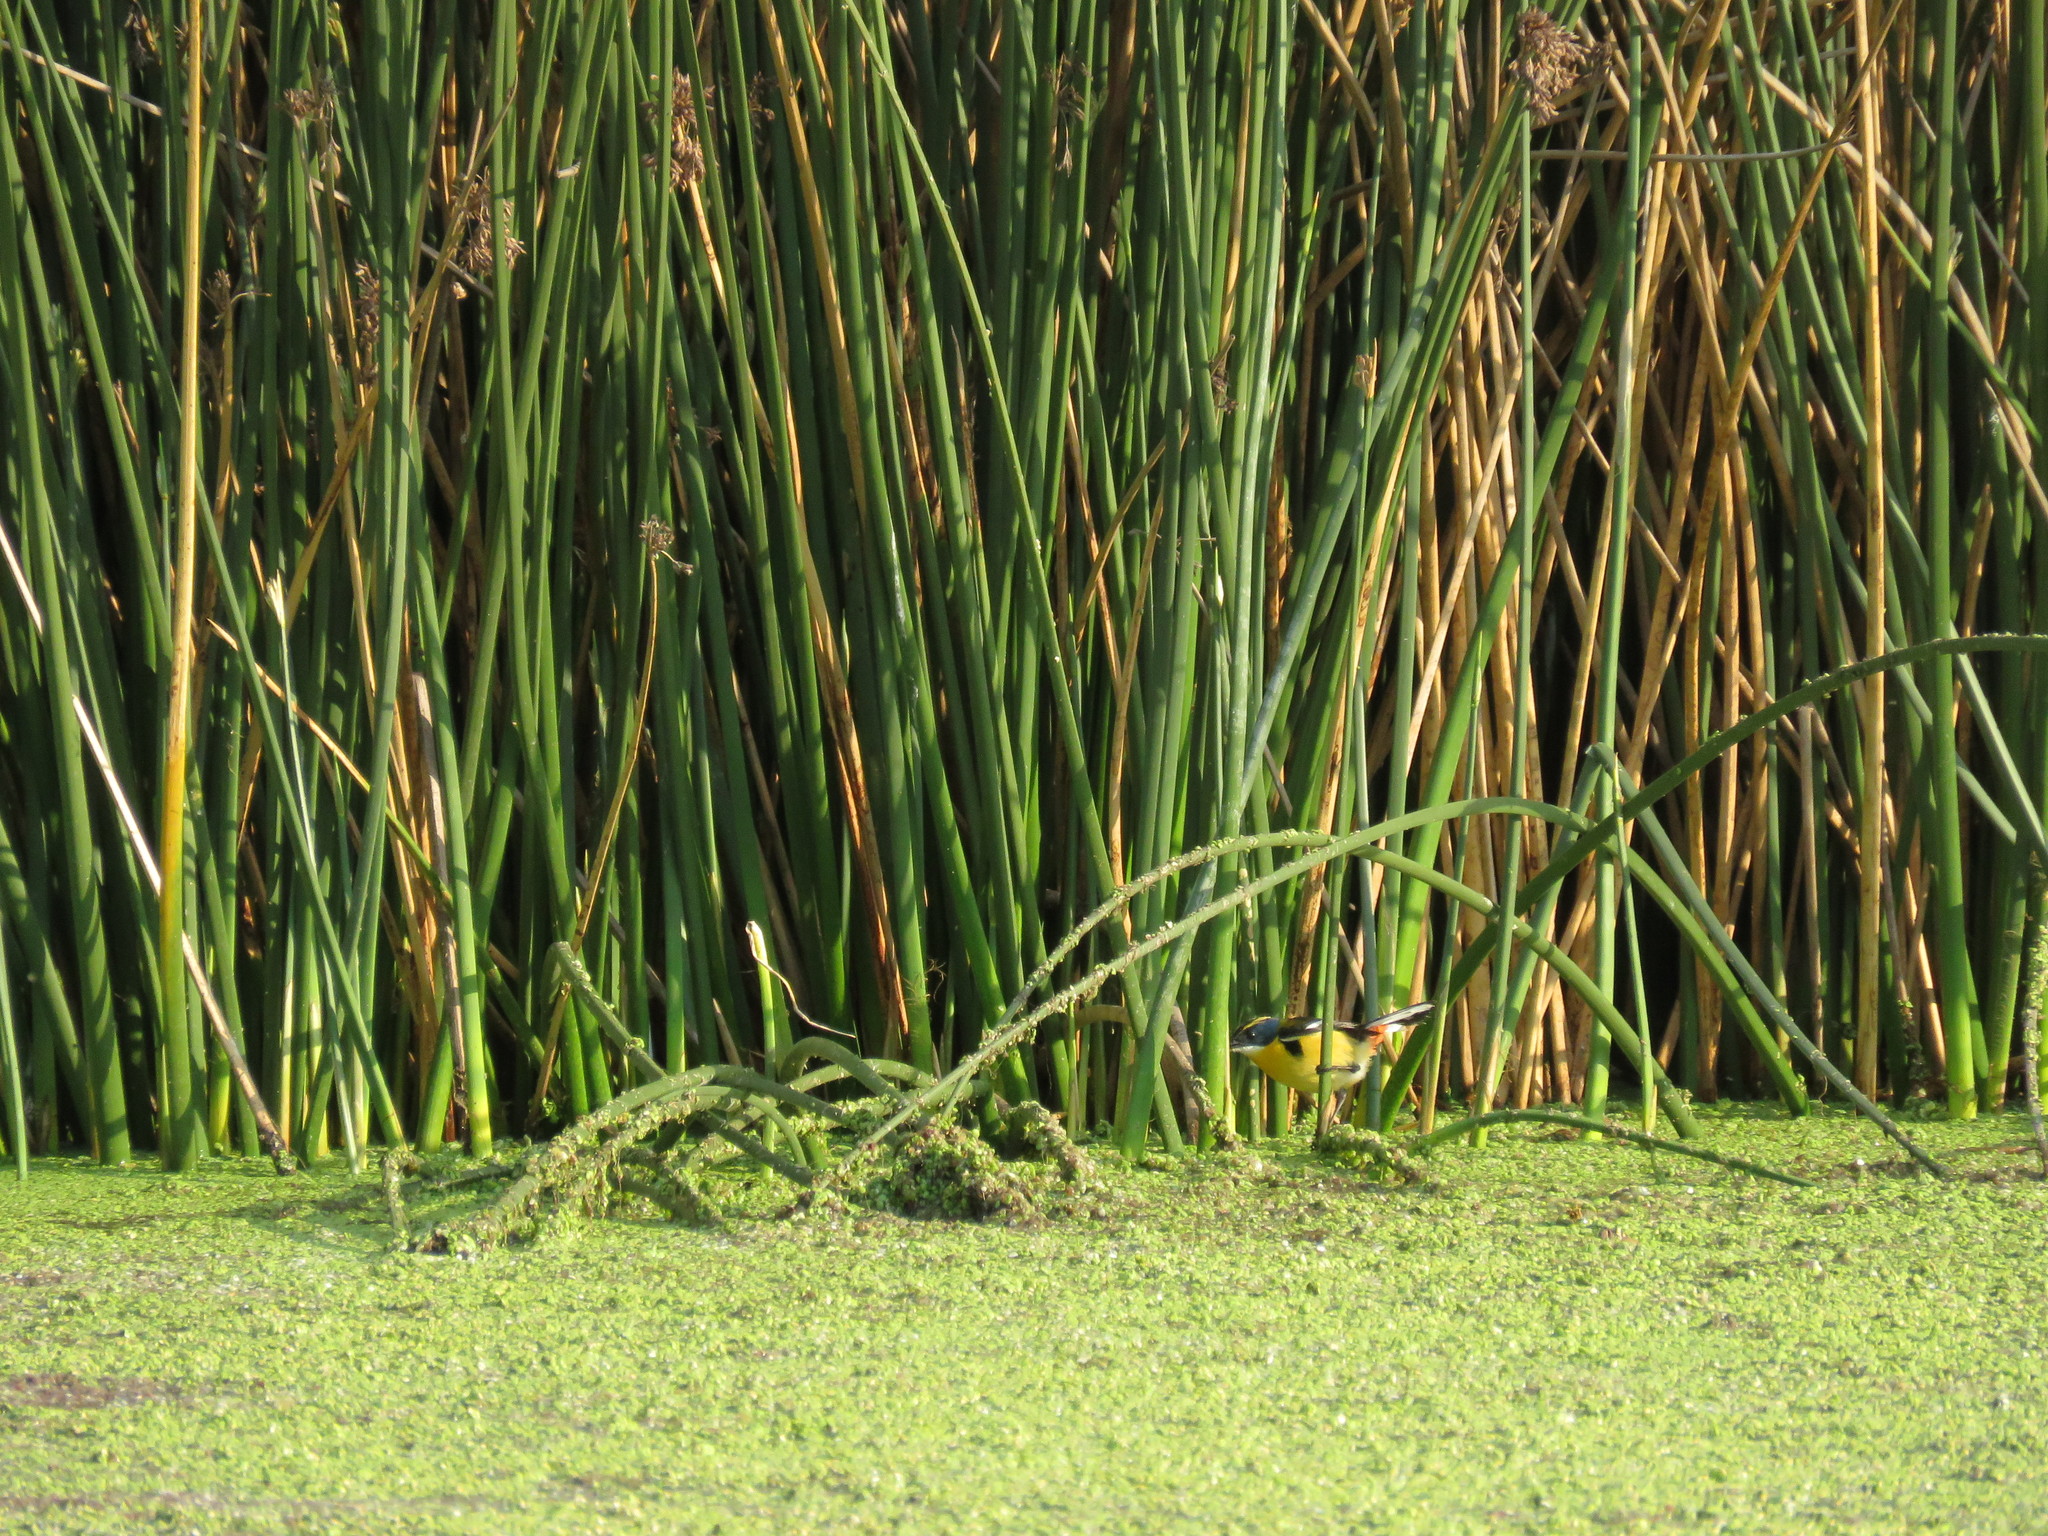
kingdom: Animalia
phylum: Chordata
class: Aves
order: Passeriformes
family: Tyrannidae
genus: Tachuris
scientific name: Tachuris rubrigastra
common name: Many-colored rush tyrant
